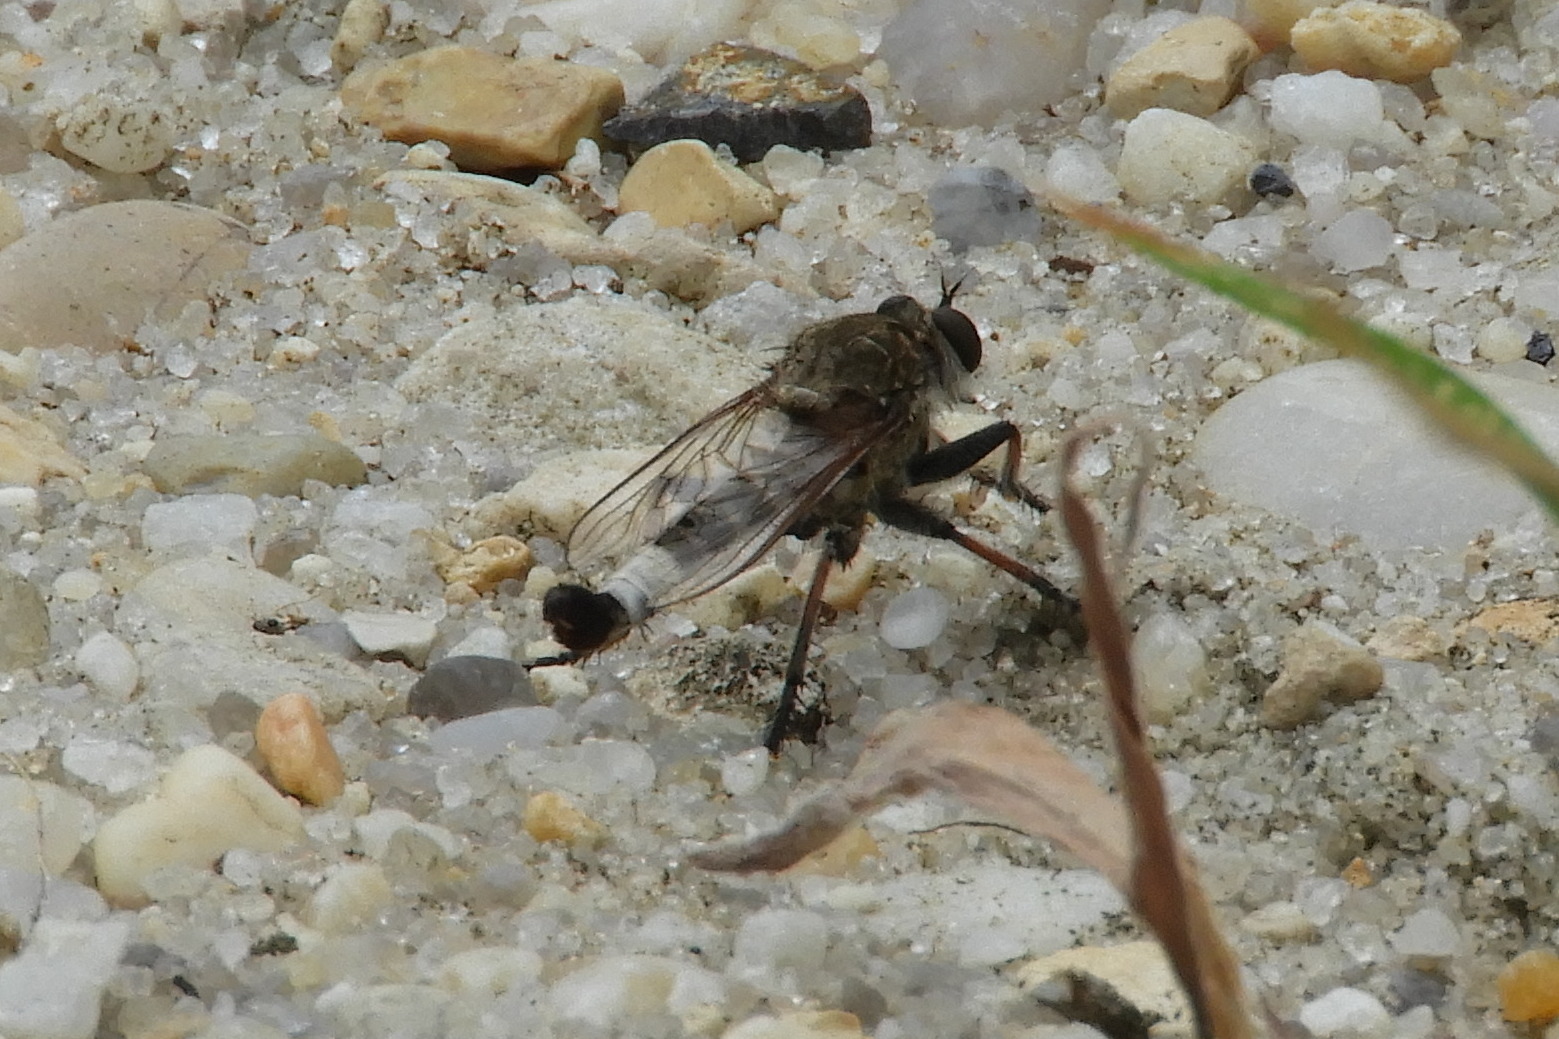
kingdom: Animalia
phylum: Arthropoda
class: Insecta
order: Diptera
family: Asilidae
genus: Efferia
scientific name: Efferia albibarbis
